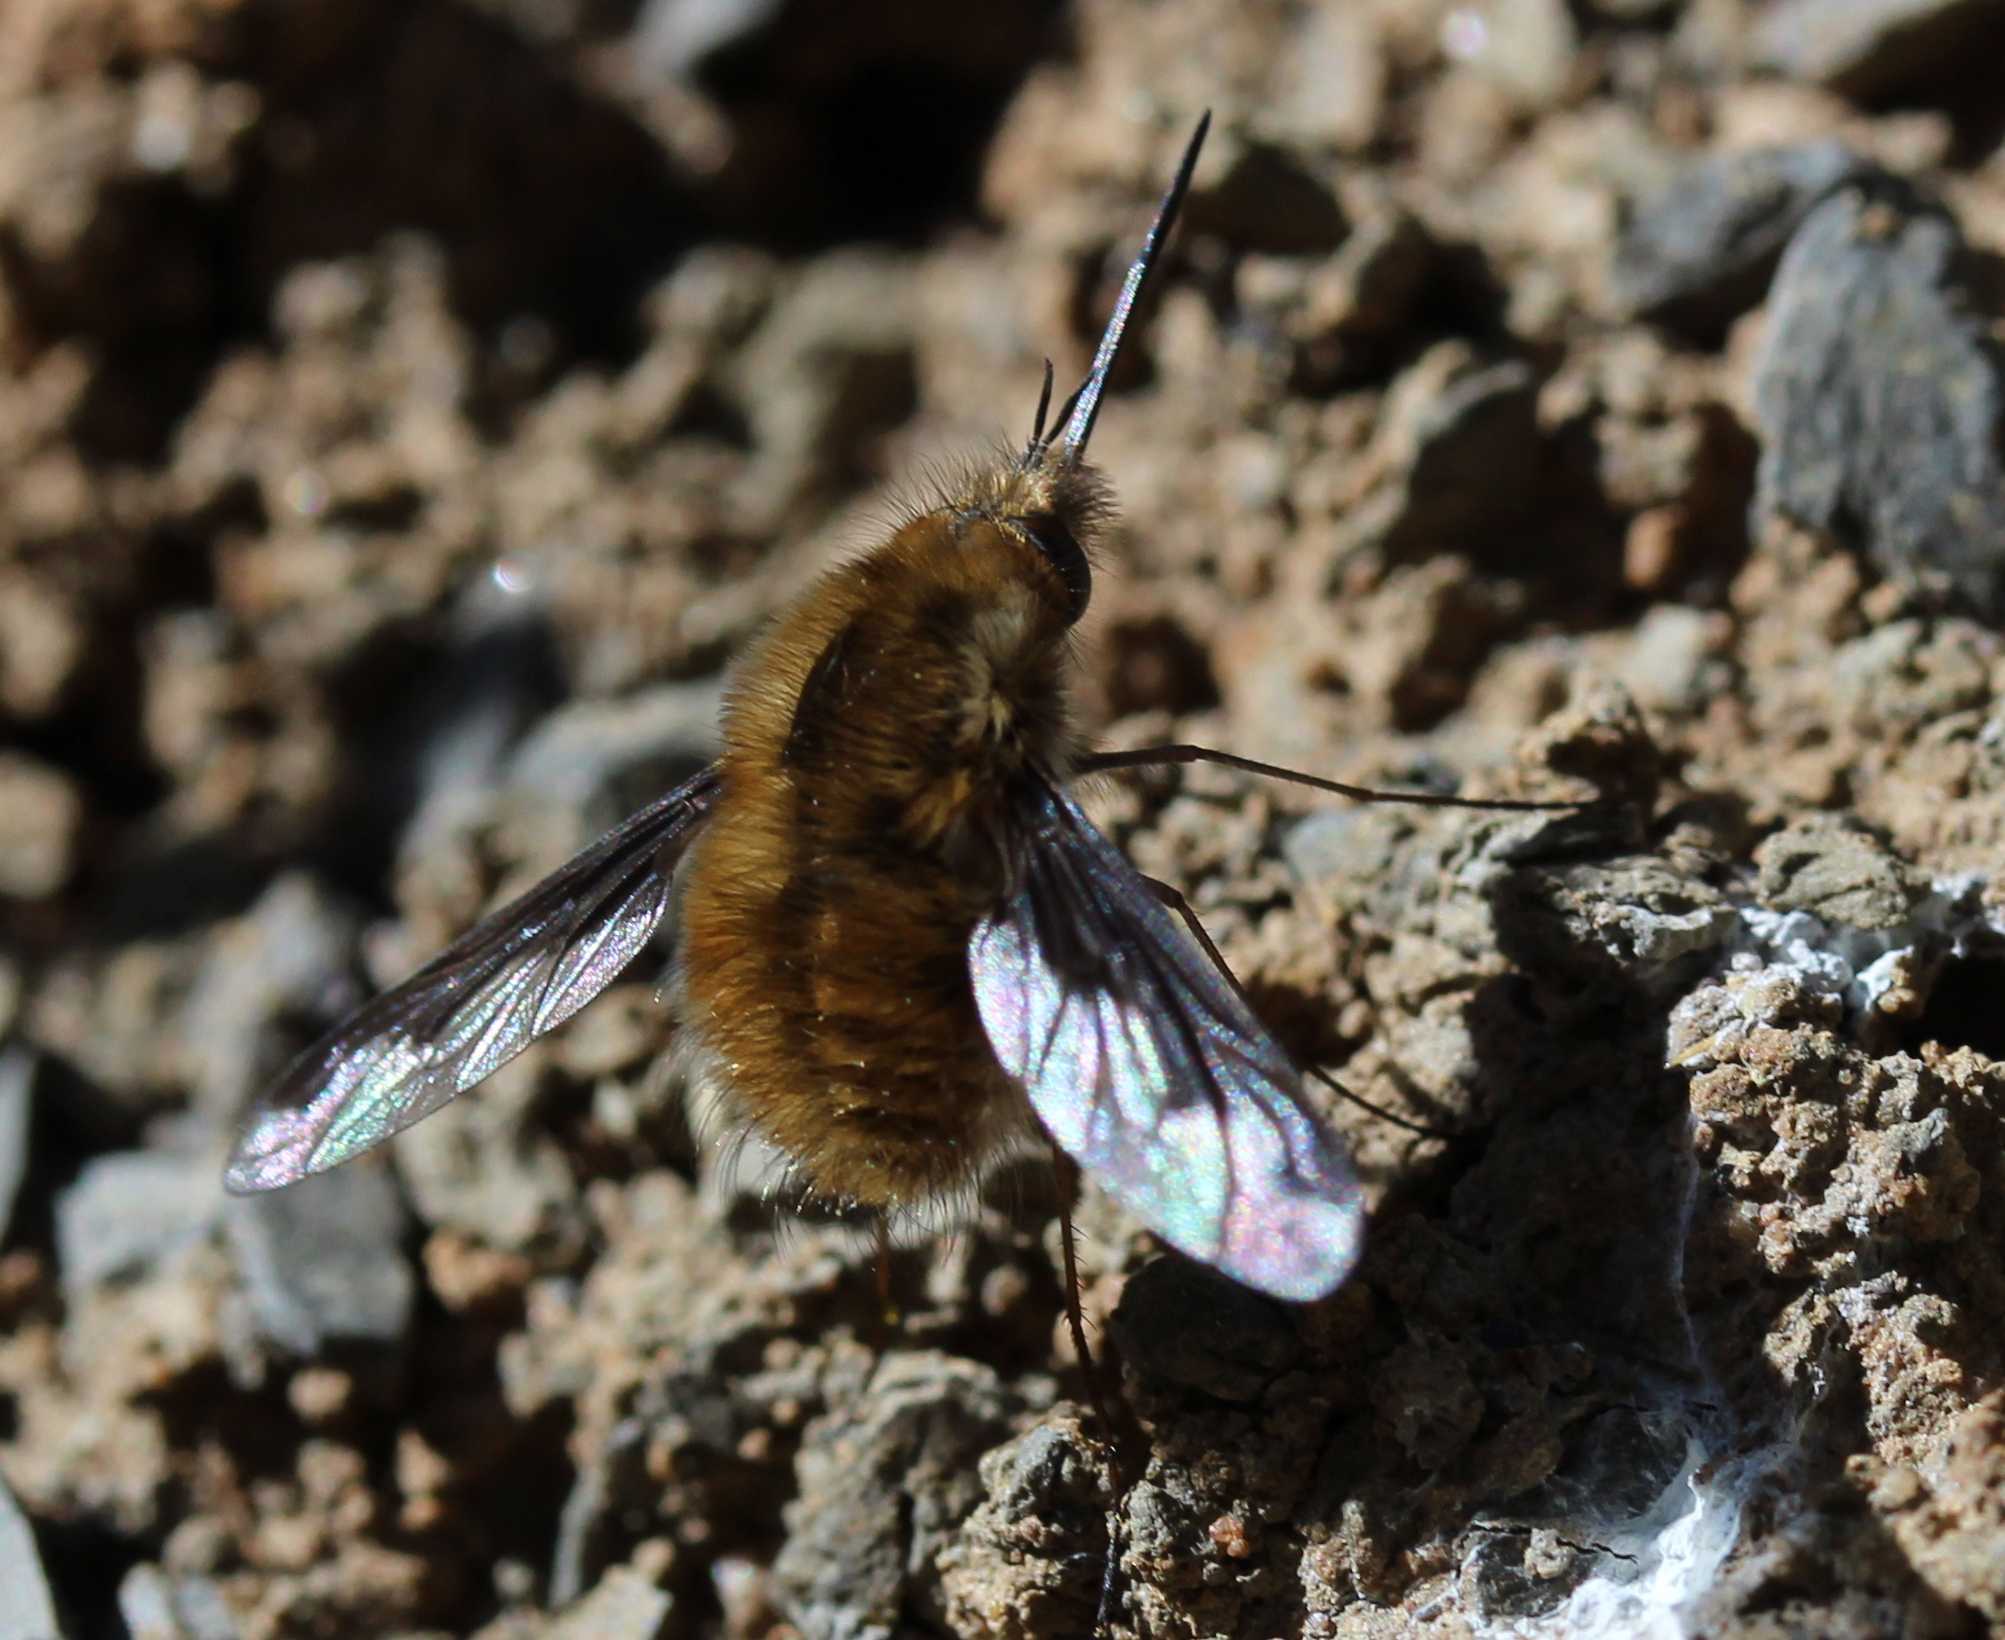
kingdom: Animalia
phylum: Arthropoda
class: Insecta
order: Diptera
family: Bombyliidae
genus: Bombylius
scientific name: Bombylius major
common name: Bee fly
